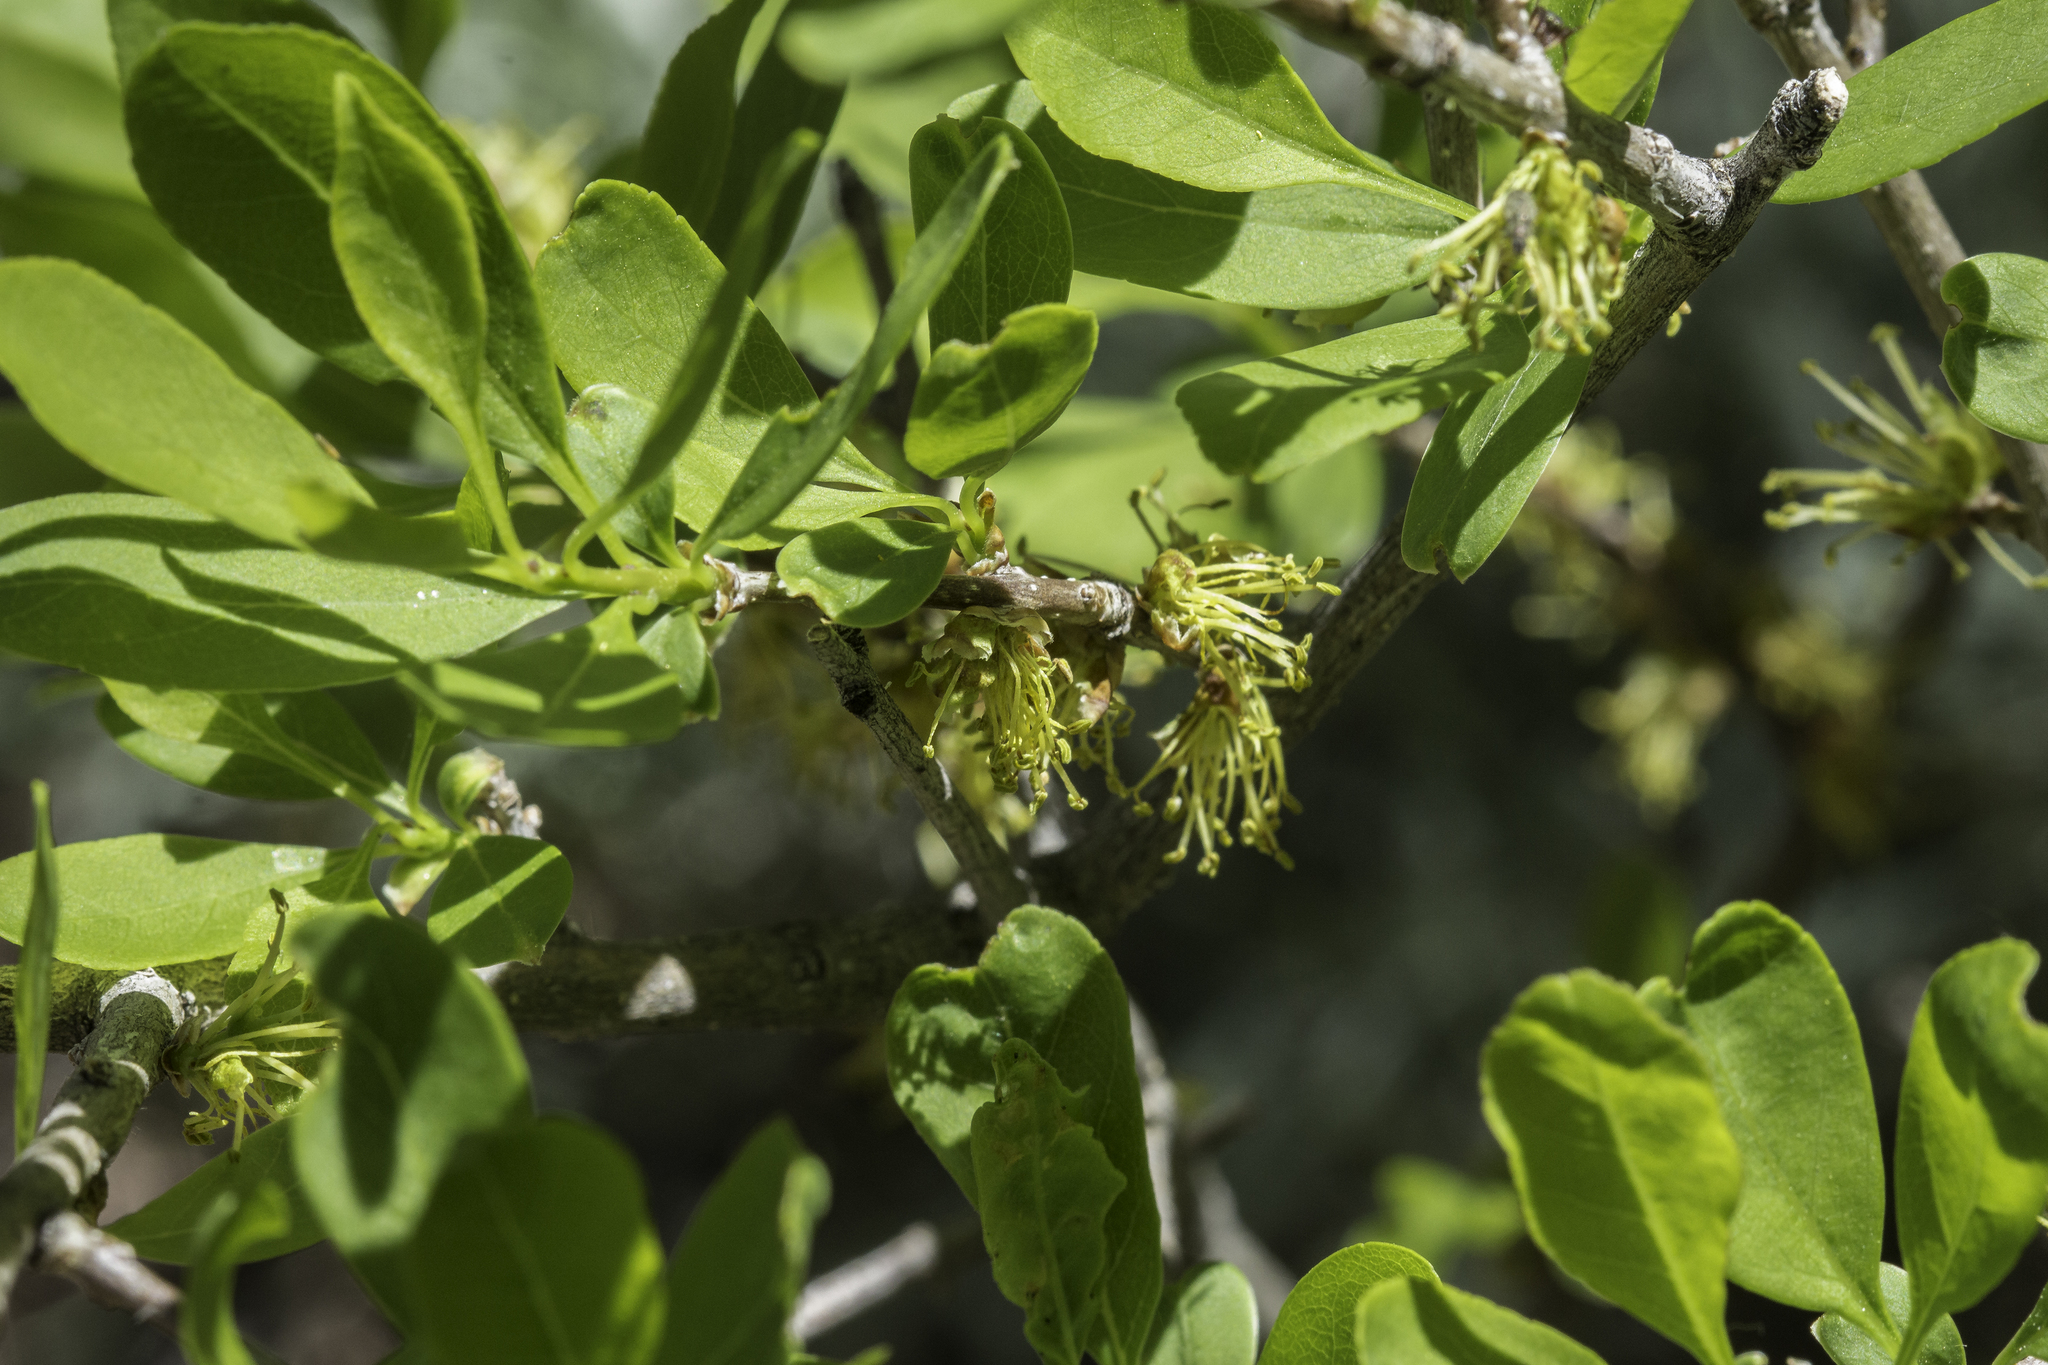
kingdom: Plantae
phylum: Tracheophyta
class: Magnoliopsida
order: Lamiales
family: Oleaceae
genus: Forestiera
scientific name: Forestiera pubescens
